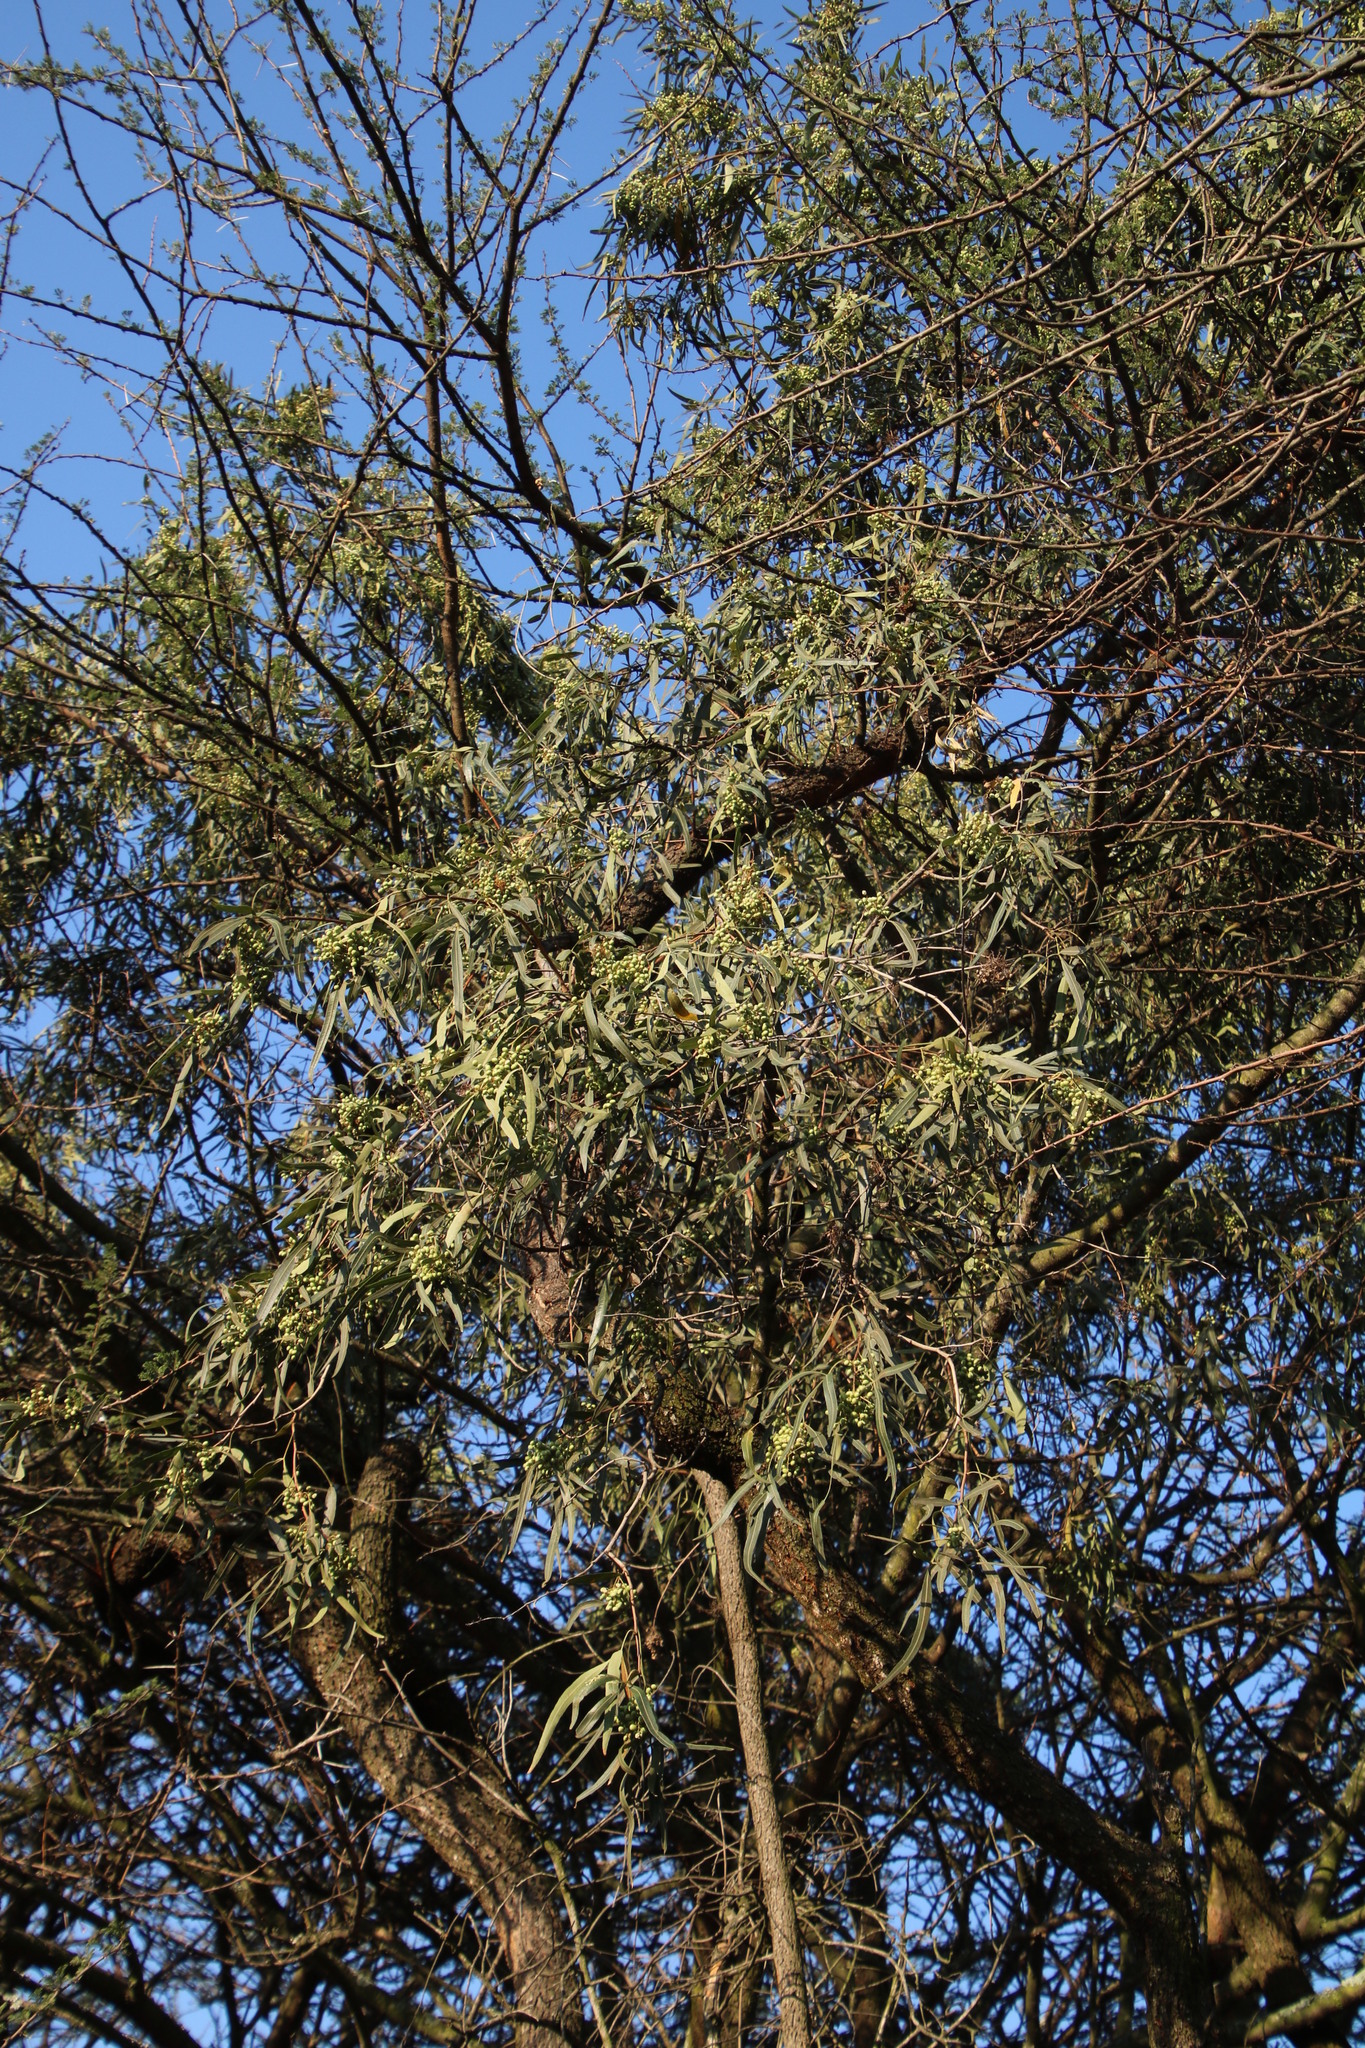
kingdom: Plantae
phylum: Tracheophyta
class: Magnoliopsida
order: Sapindales
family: Anacardiaceae
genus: Searsia
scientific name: Searsia lancea
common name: Cashew
